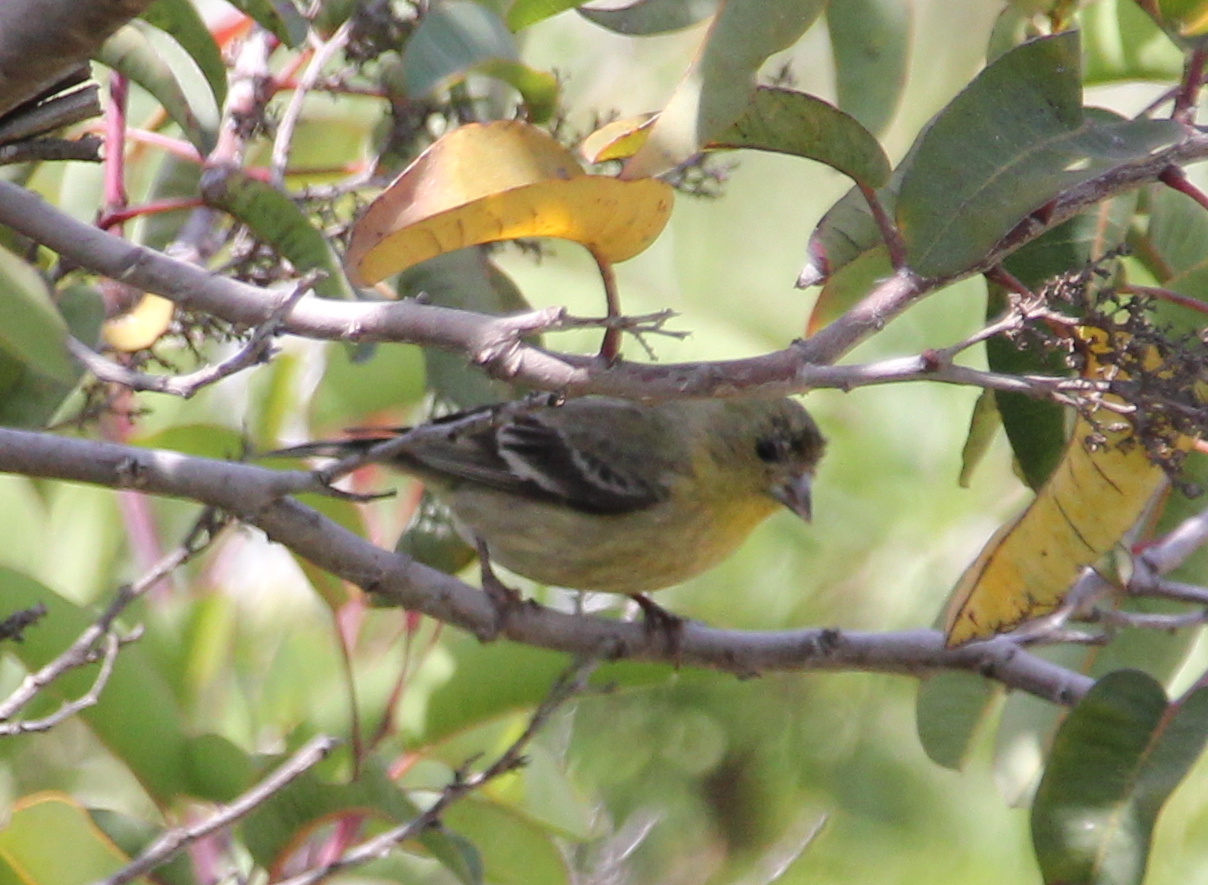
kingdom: Animalia
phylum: Chordata
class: Aves
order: Passeriformes
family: Fringillidae
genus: Spinus
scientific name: Spinus psaltria
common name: Lesser goldfinch
